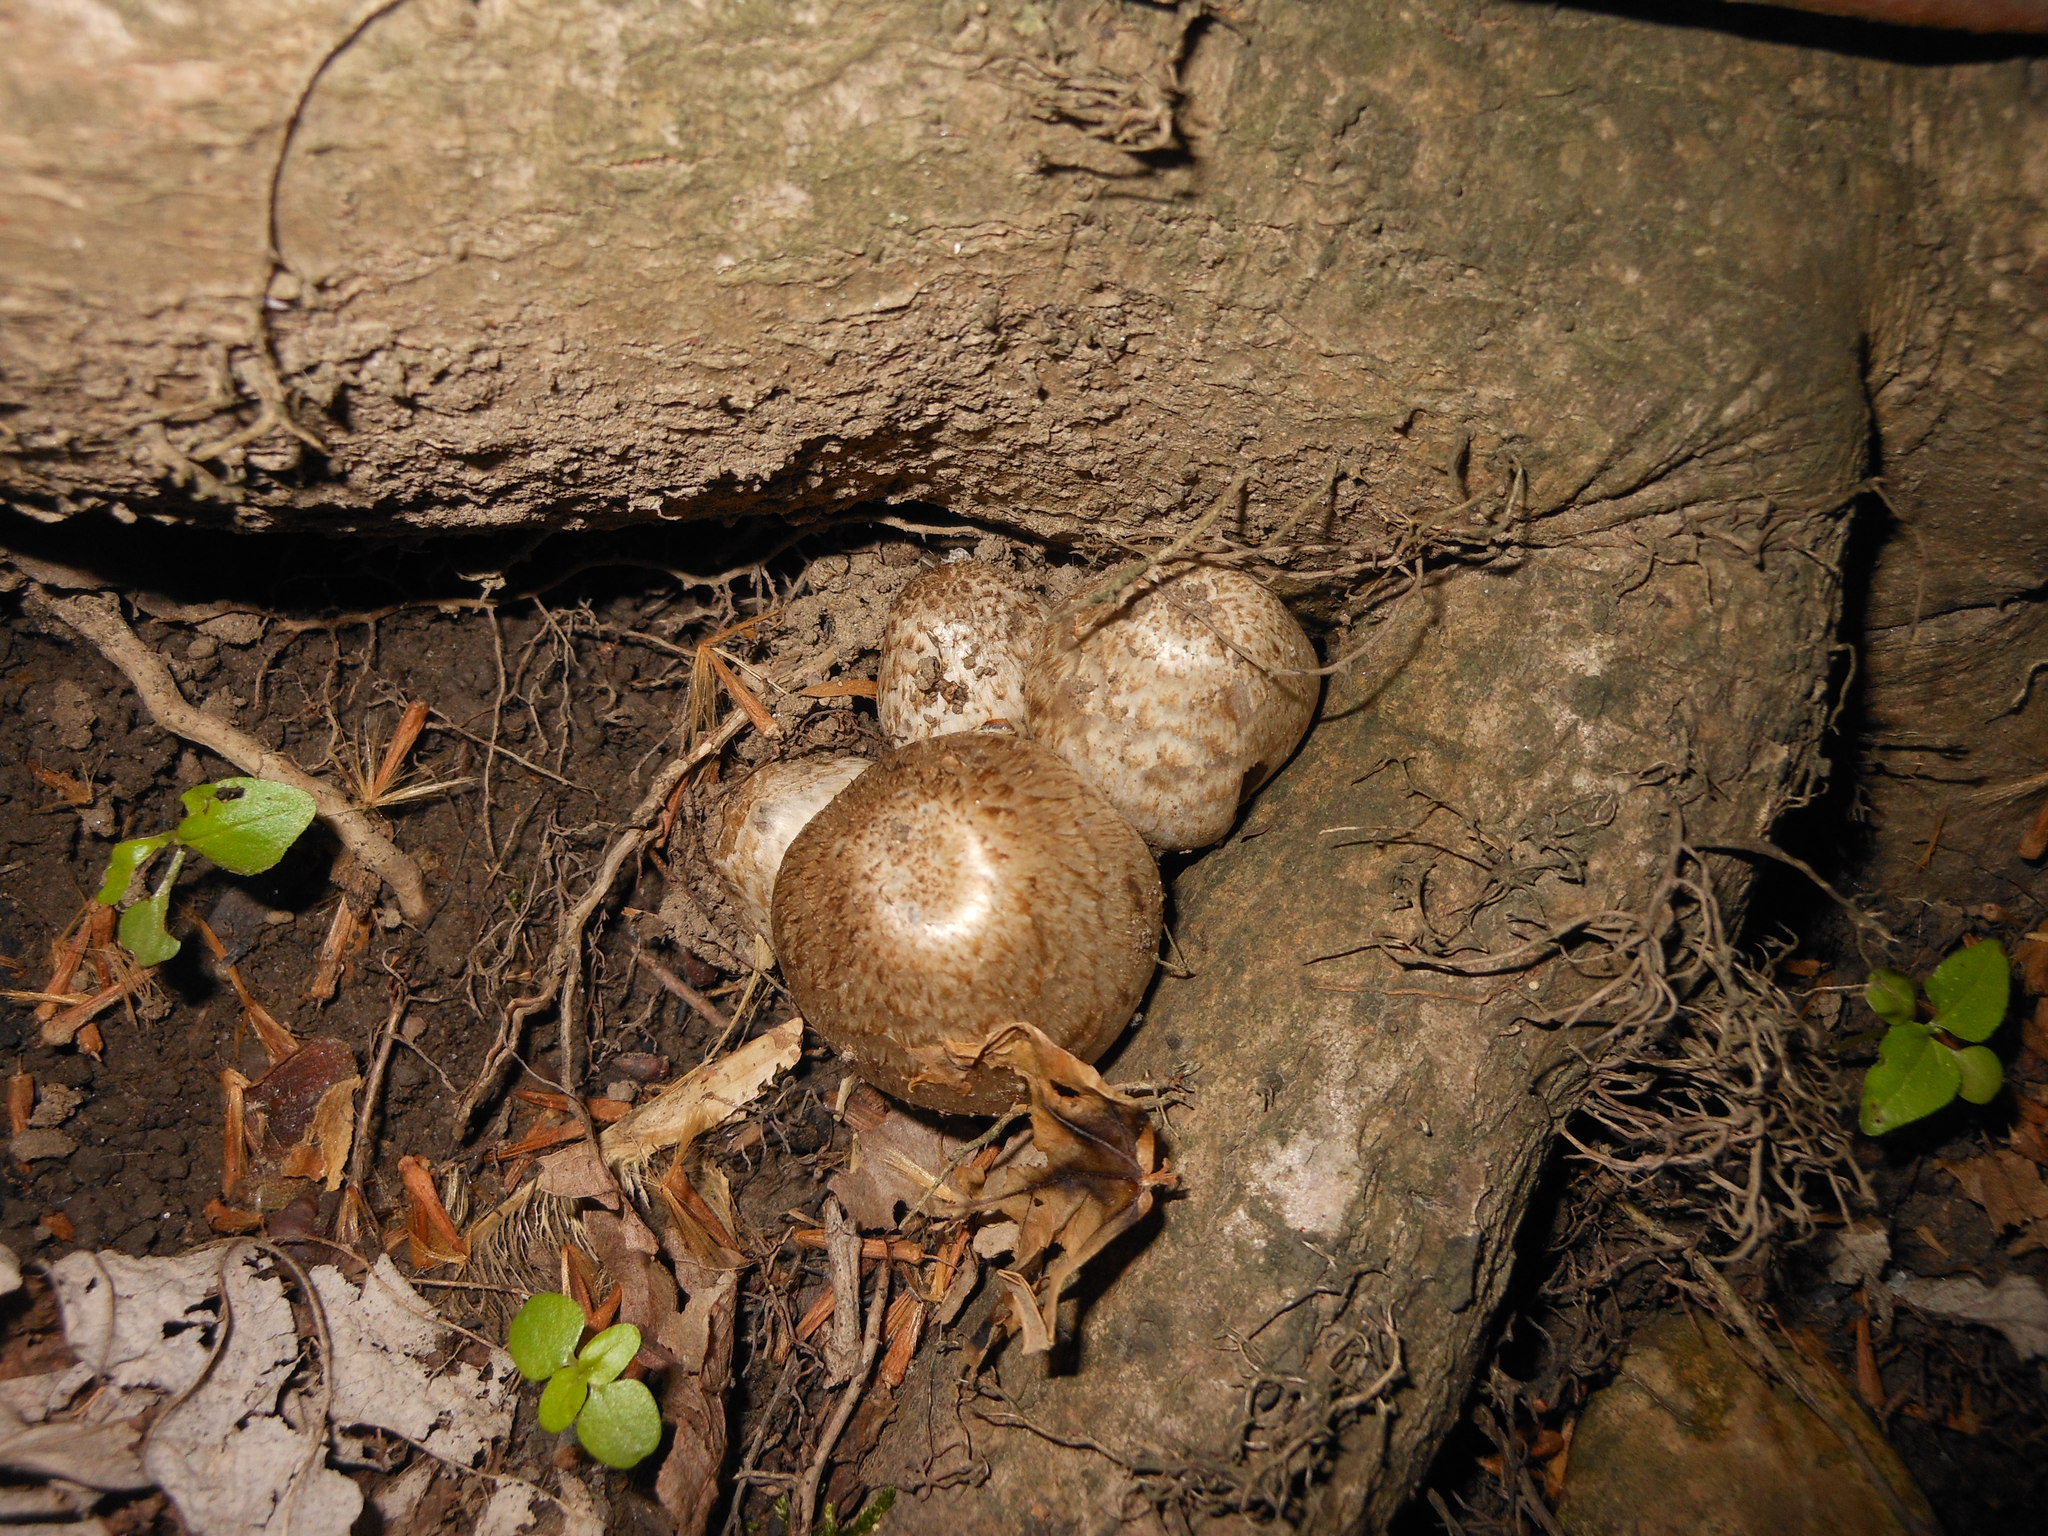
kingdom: Fungi
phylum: Basidiomycota
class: Agaricomycetes
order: Agaricales
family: Psathyrellaceae
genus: Coprinopsis
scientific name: Coprinopsis romagnesiana
